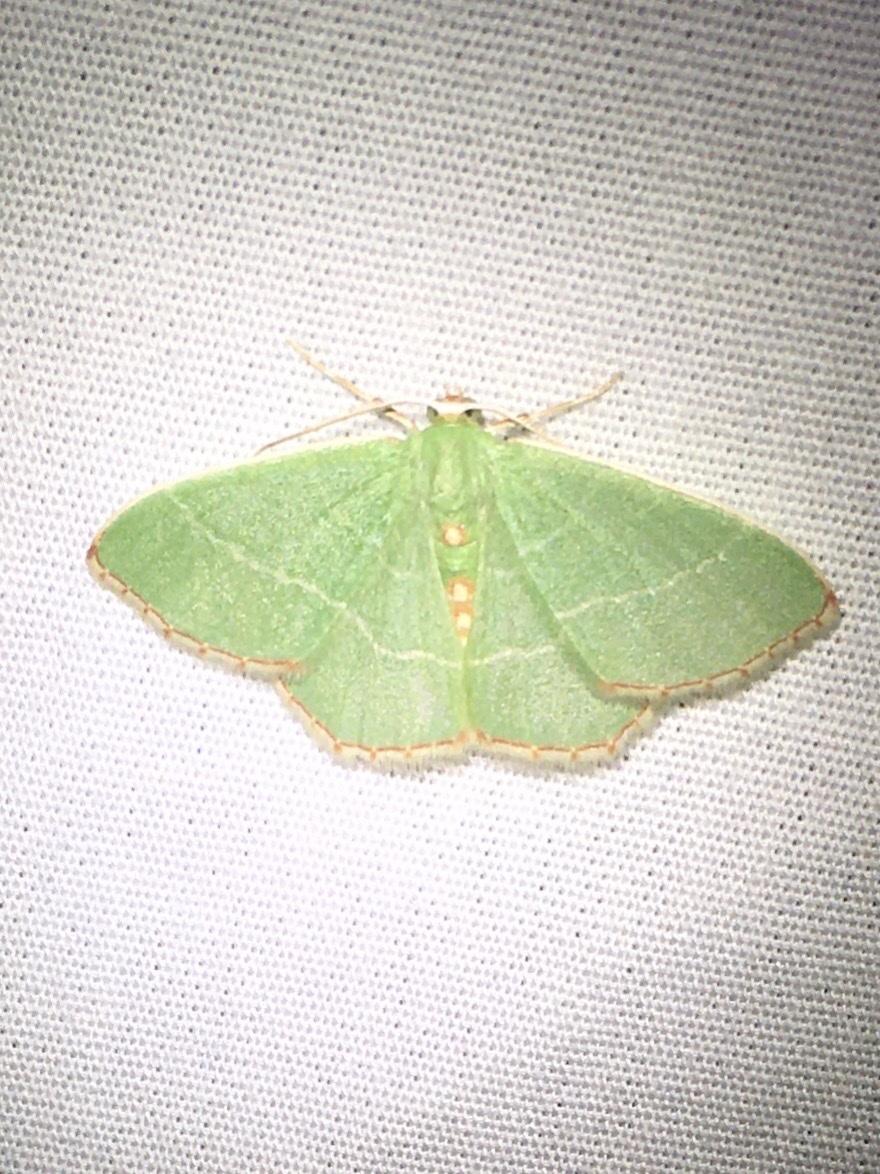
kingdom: Animalia
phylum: Arthropoda
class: Insecta
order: Lepidoptera
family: Geometridae
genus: Nemoria
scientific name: Nemoria bistriaria
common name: Red-fringed emerald
